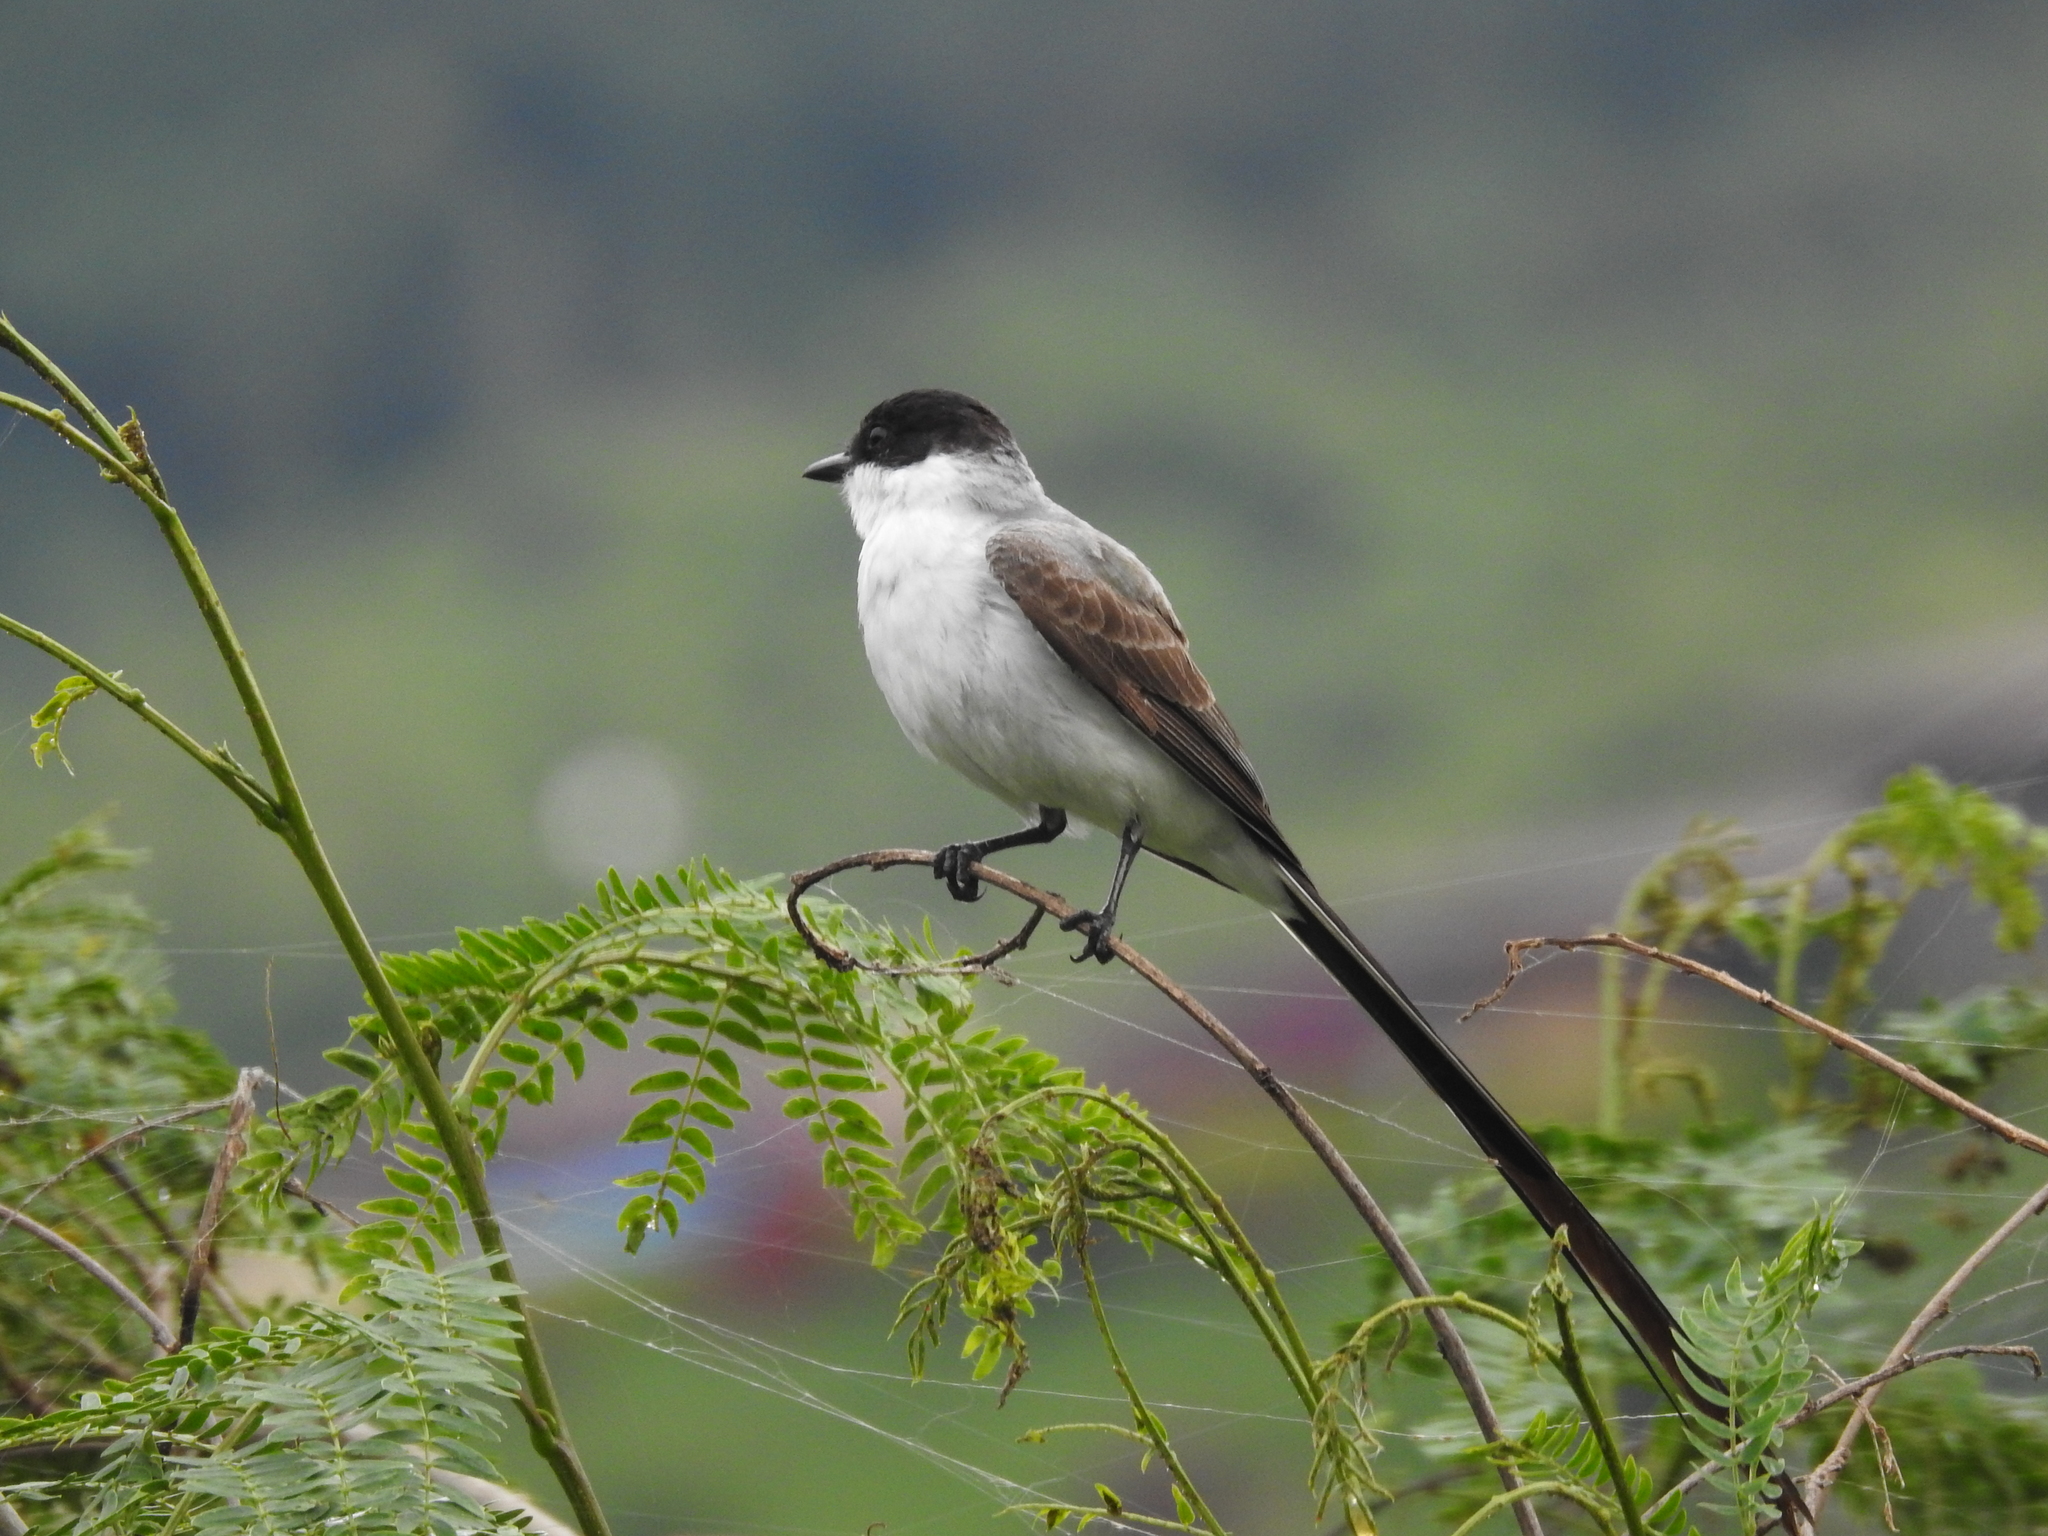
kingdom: Animalia
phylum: Chordata
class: Aves
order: Passeriformes
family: Tyrannidae
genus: Tyrannus
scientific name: Tyrannus savana
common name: Fork-tailed flycatcher
